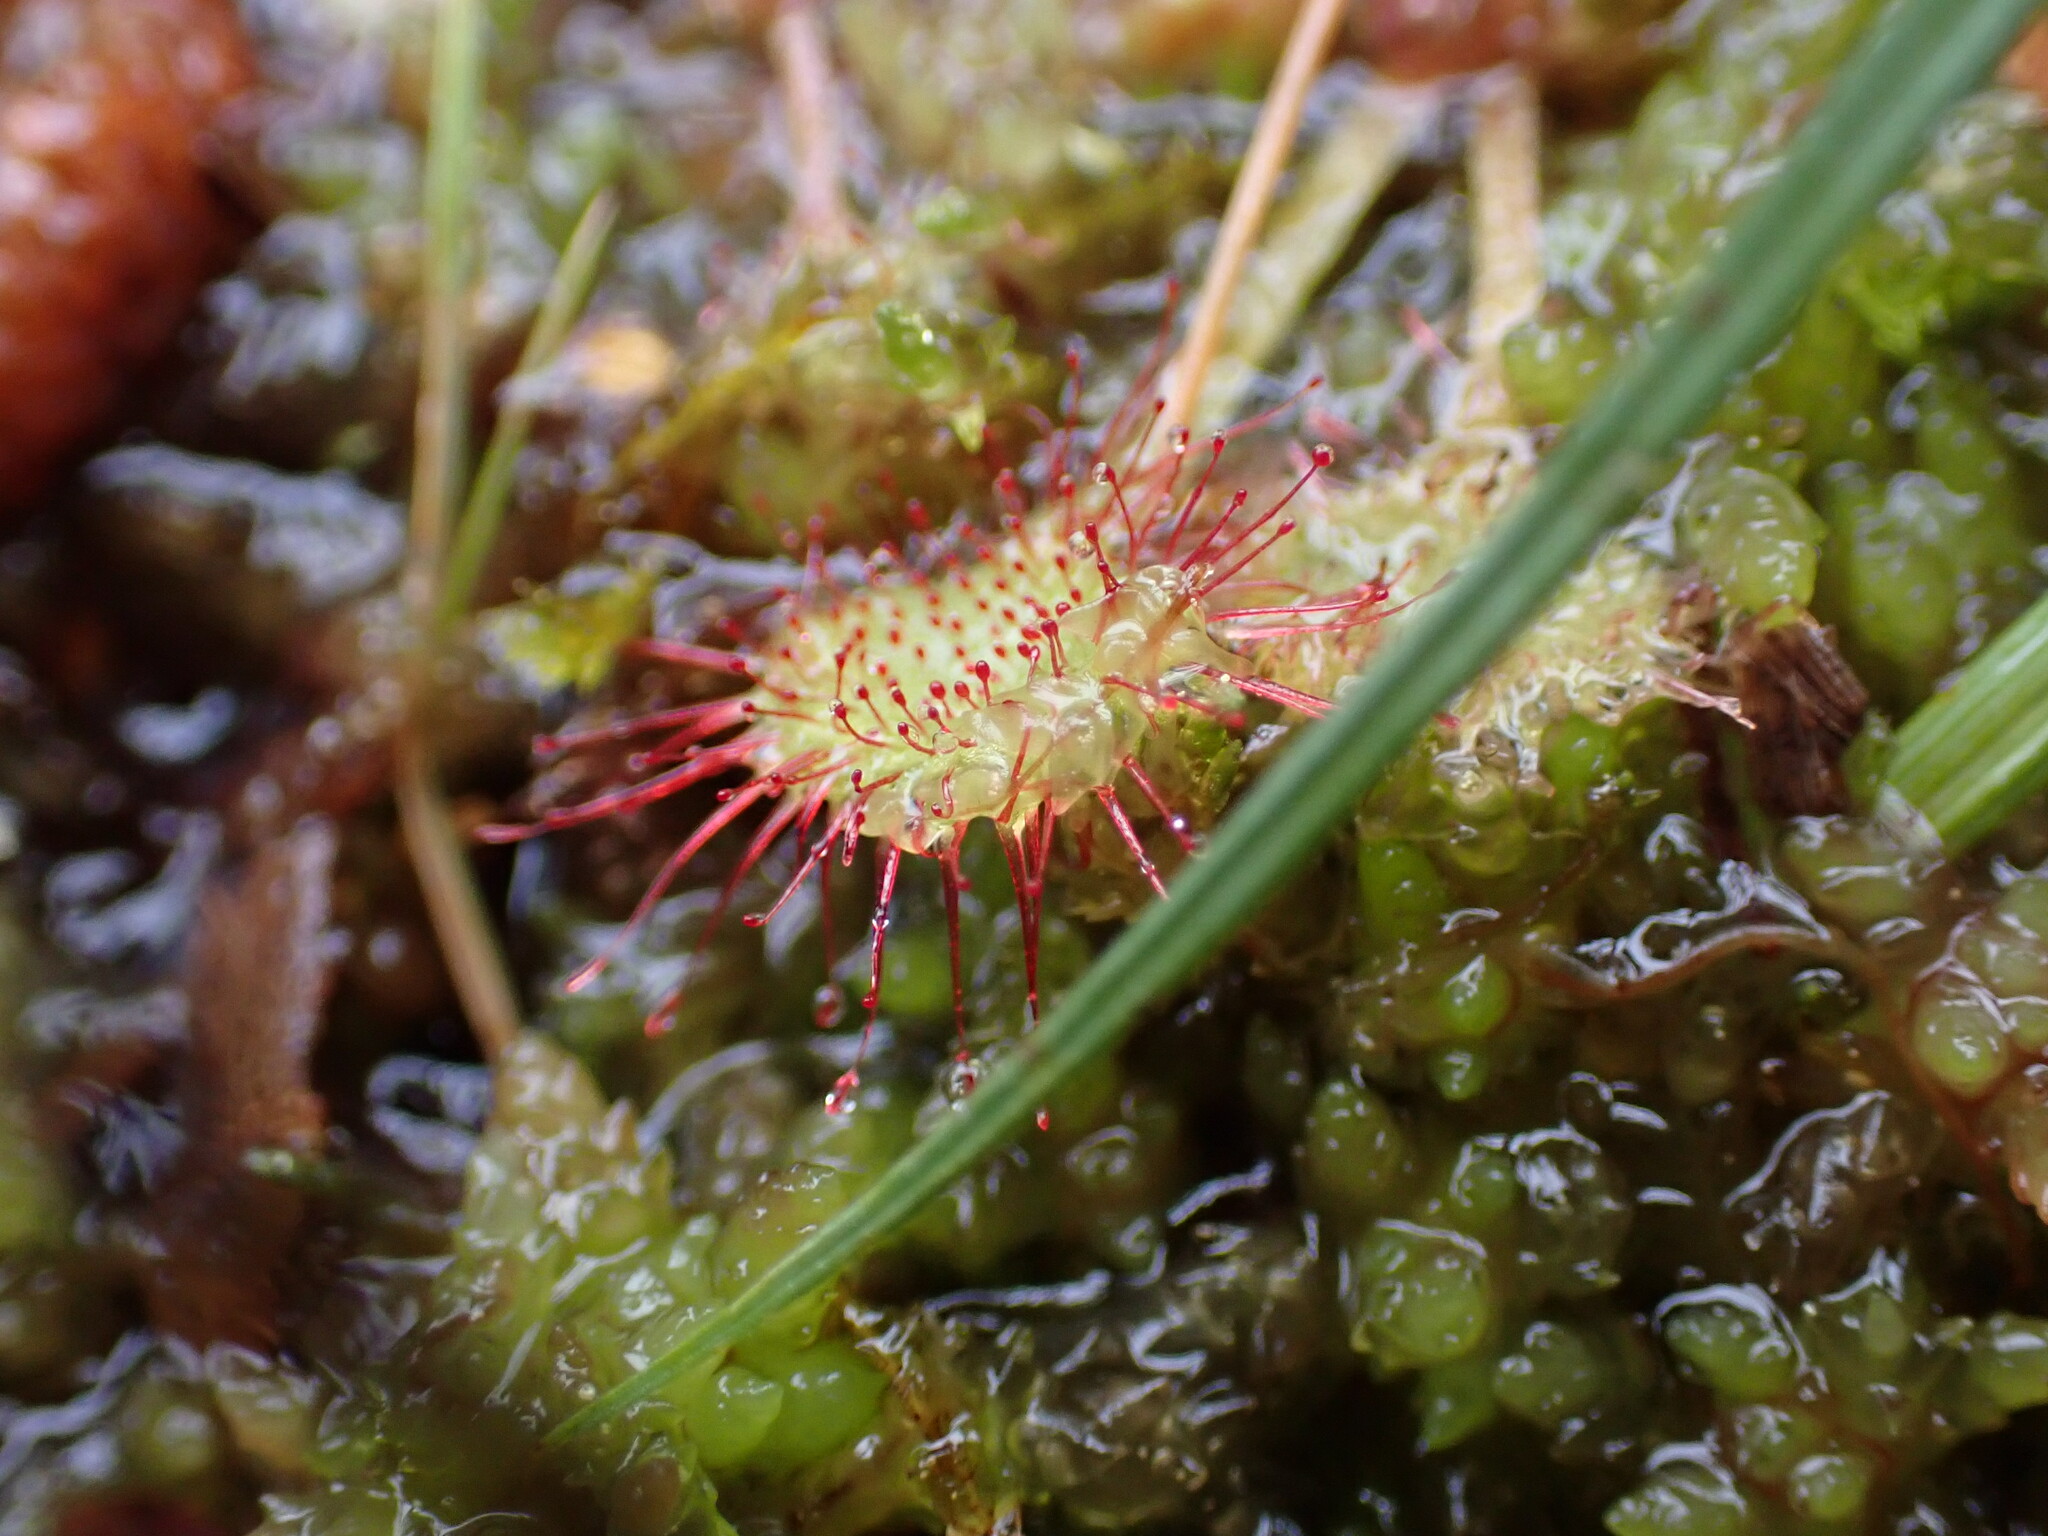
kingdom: Plantae
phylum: Tracheophyta
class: Magnoliopsida
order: Caryophyllales
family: Droseraceae
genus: Drosera
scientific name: Drosera rotundifolia
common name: Round-leaved sundew
